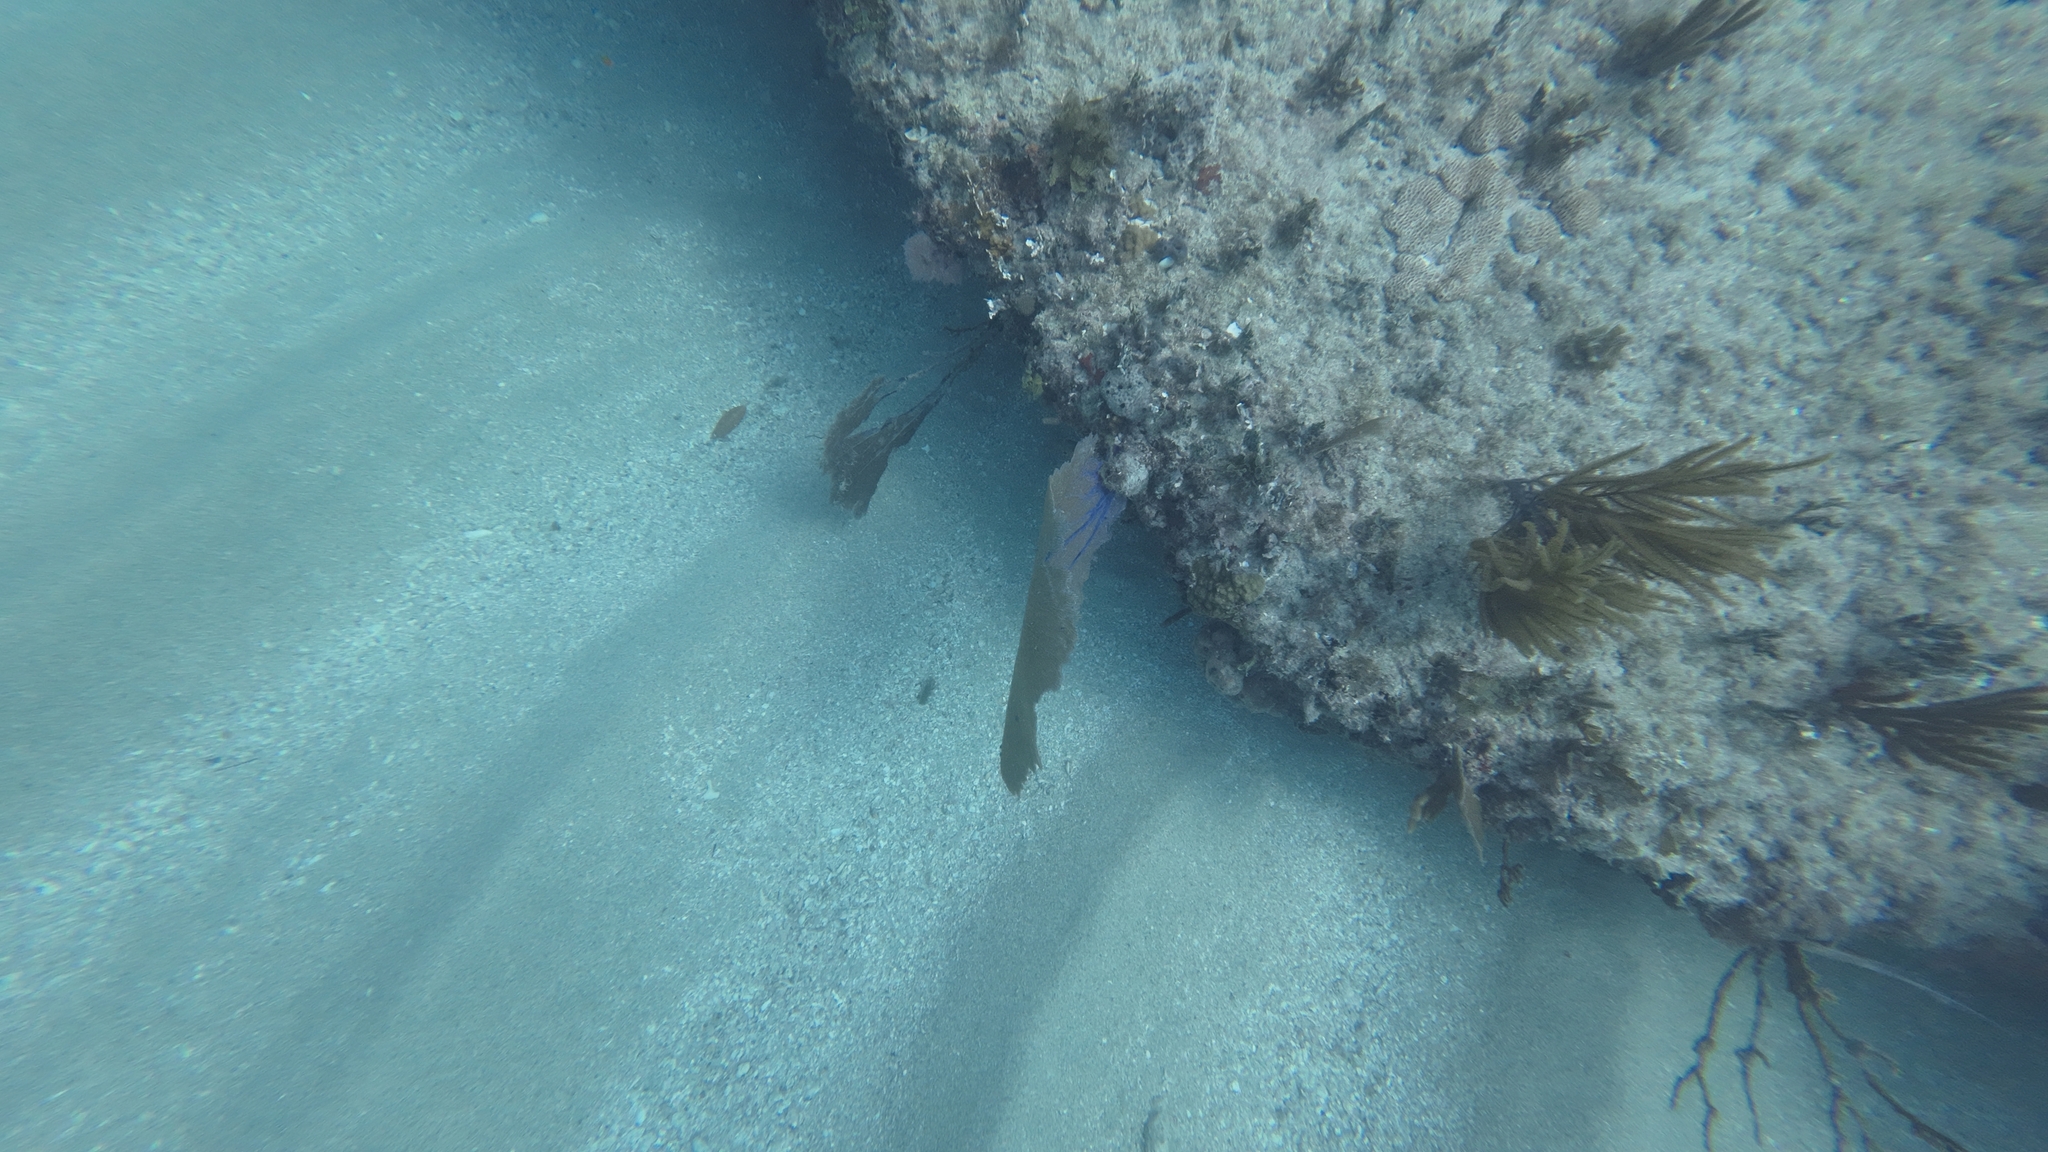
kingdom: Animalia
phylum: Cnidaria
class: Anthozoa
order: Malacalcyonacea
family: Gorgoniidae
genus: Gorgonia
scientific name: Gorgonia ventalina
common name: Common sea fan
